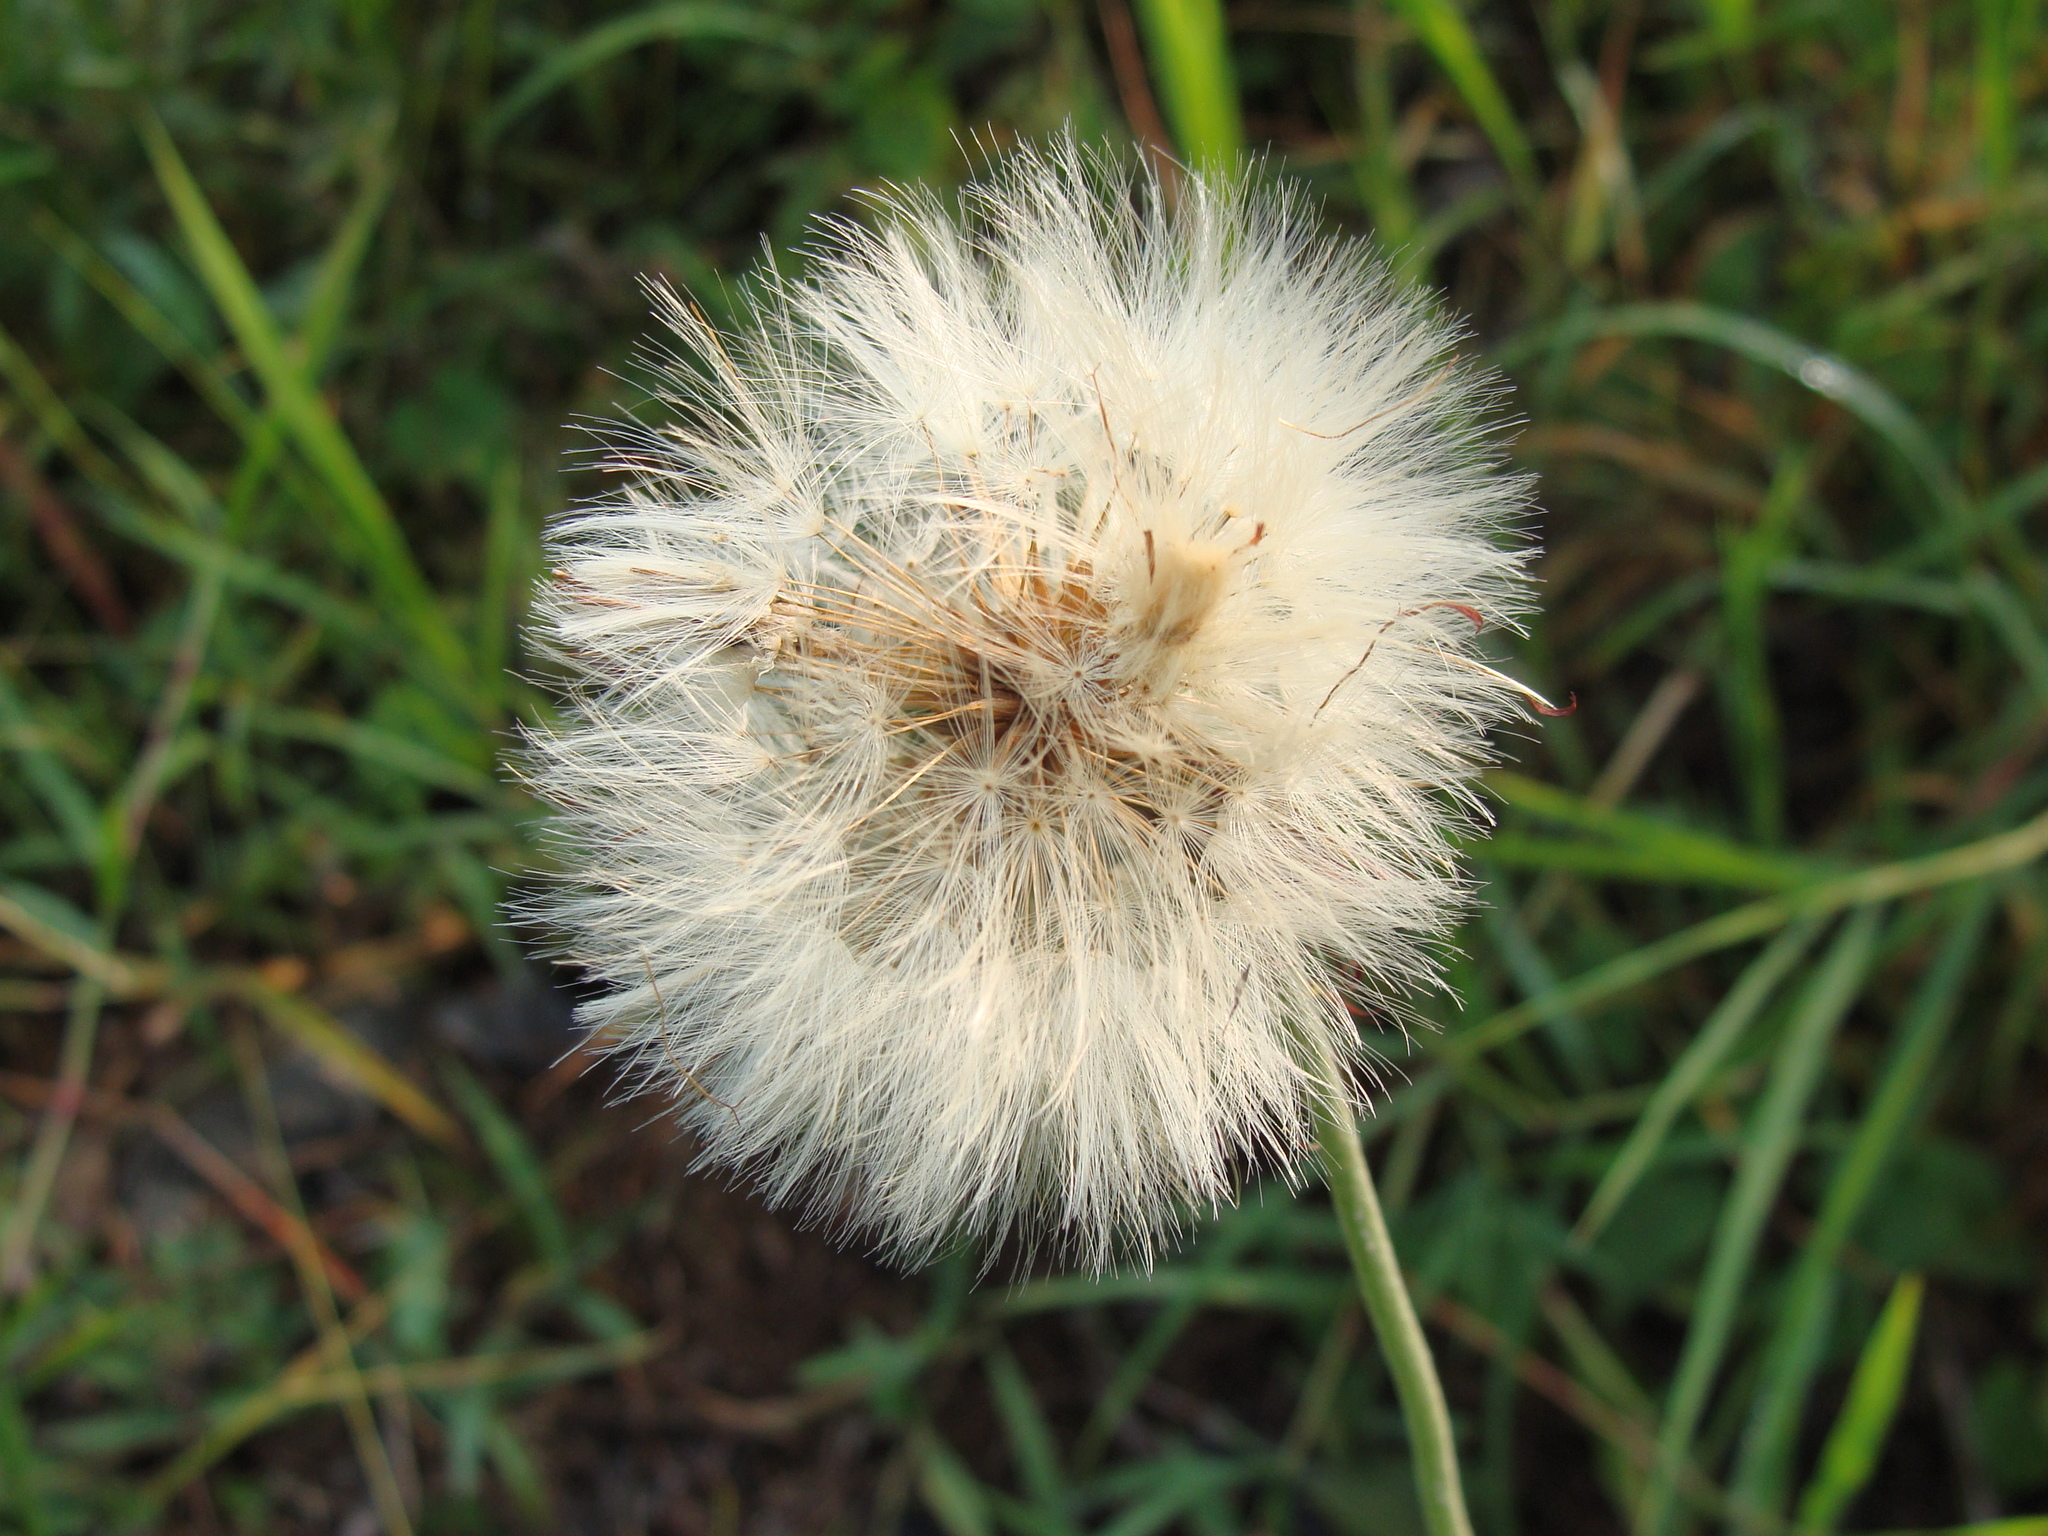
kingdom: Plantae
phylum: Tracheophyta
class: Magnoliopsida
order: Asterales
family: Asteraceae
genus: Chaptalia
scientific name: Chaptalia nutans
